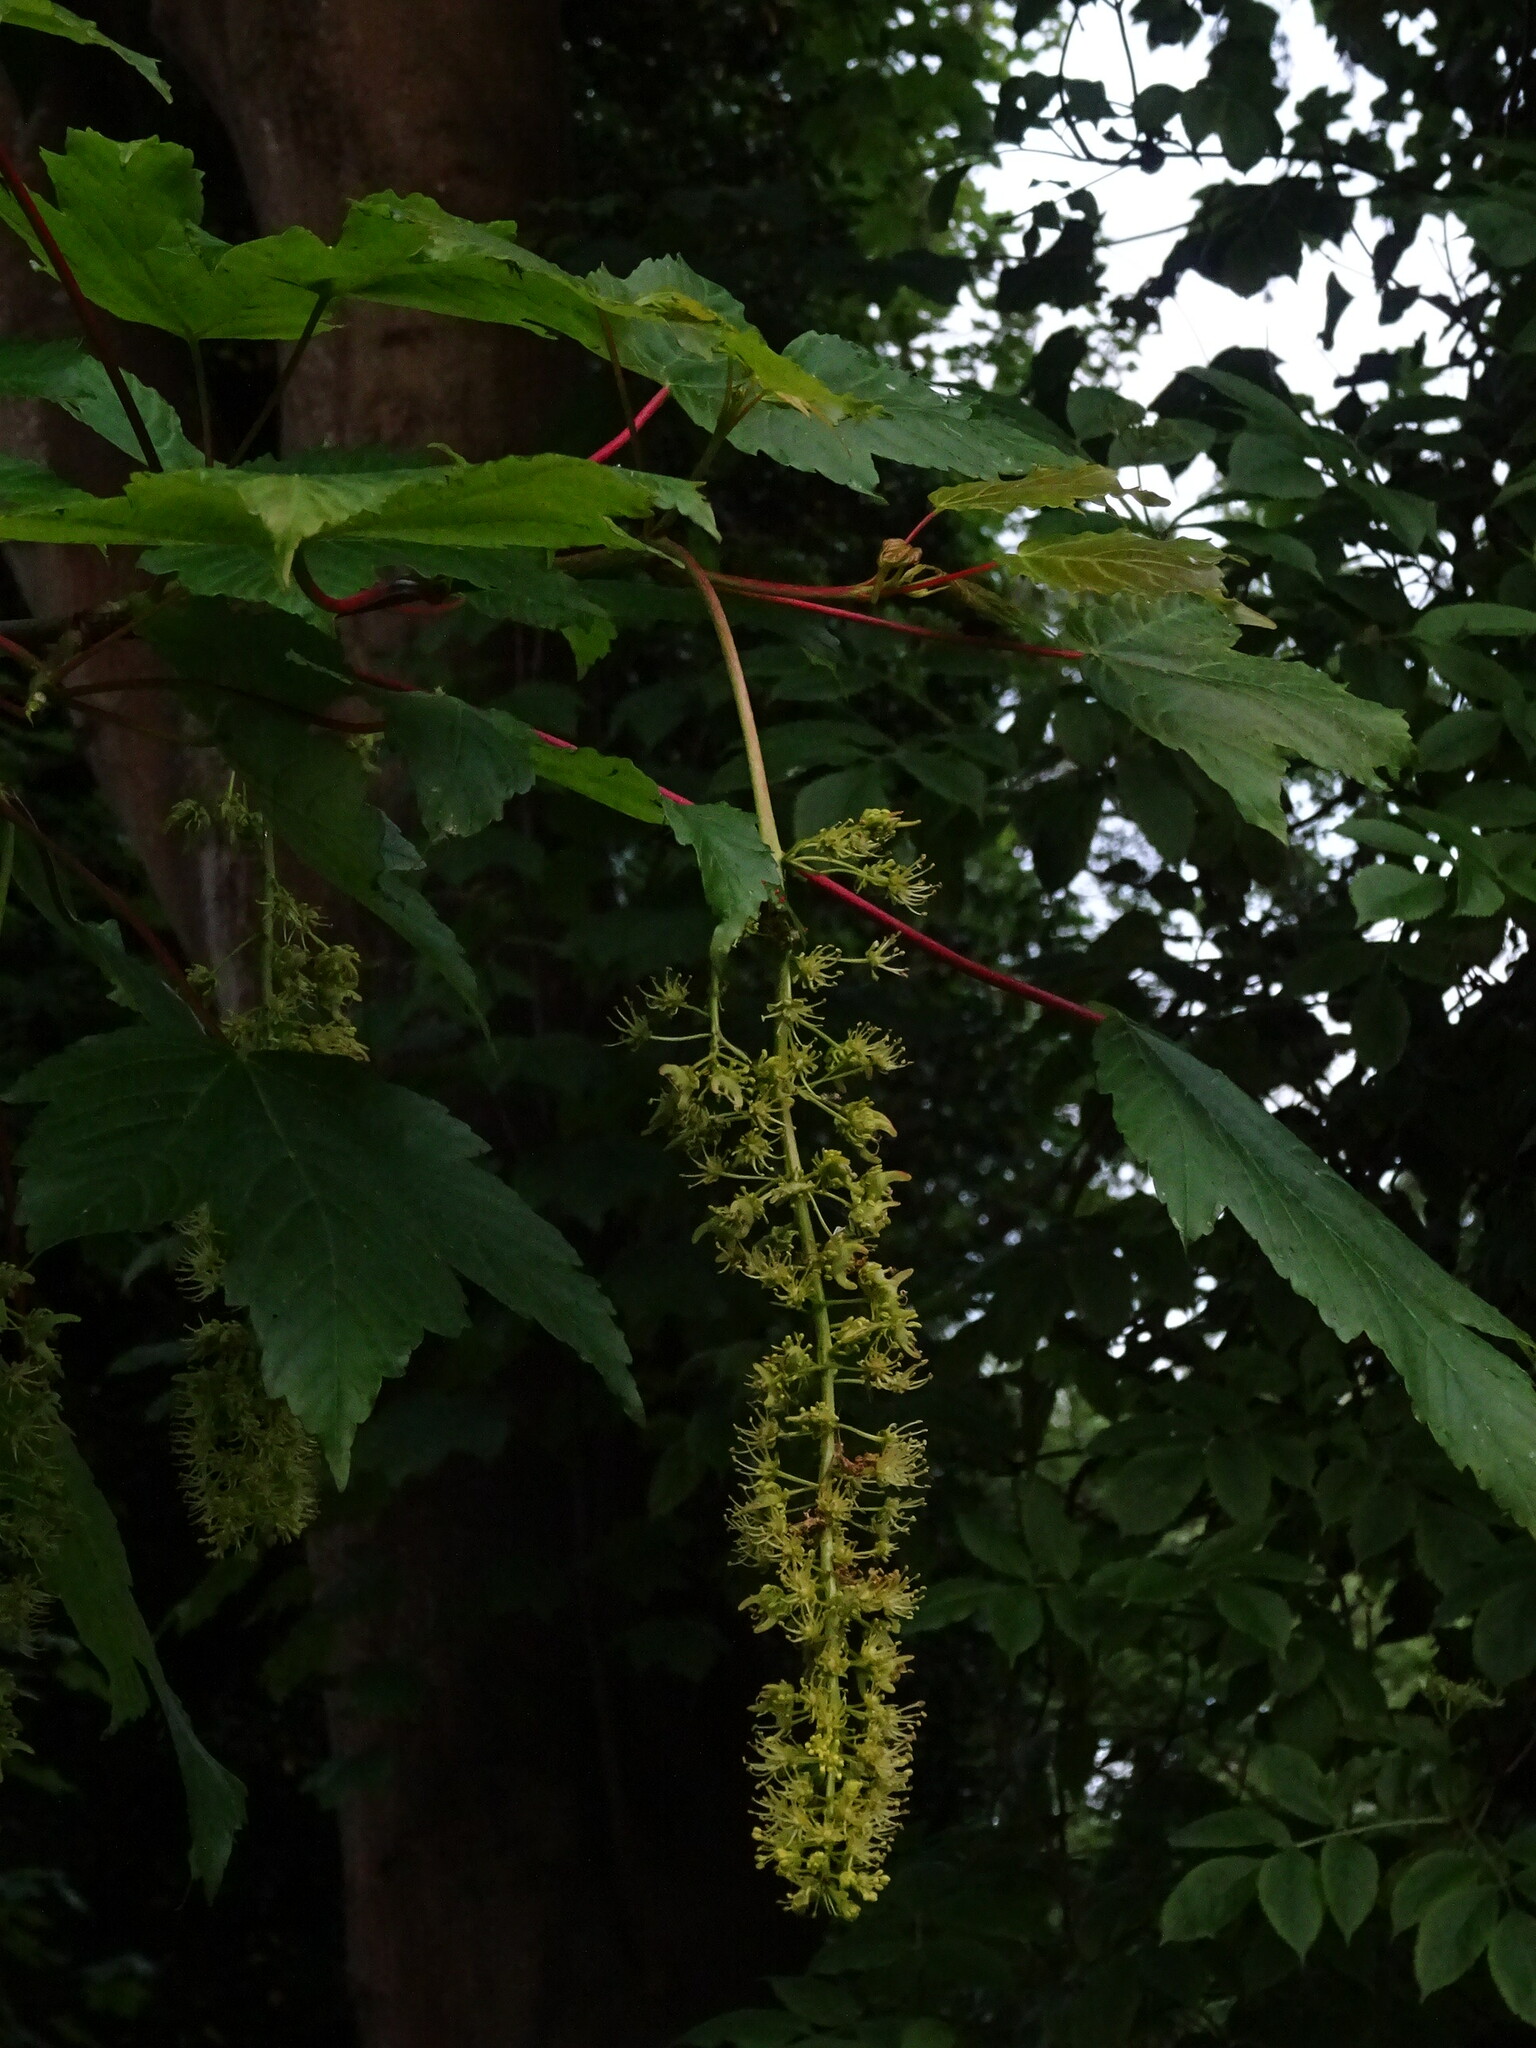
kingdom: Plantae
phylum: Tracheophyta
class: Magnoliopsida
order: Sapindales
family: Sapindaceae
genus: Acer
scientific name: Acer pseudoplatanus
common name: Sycamore
